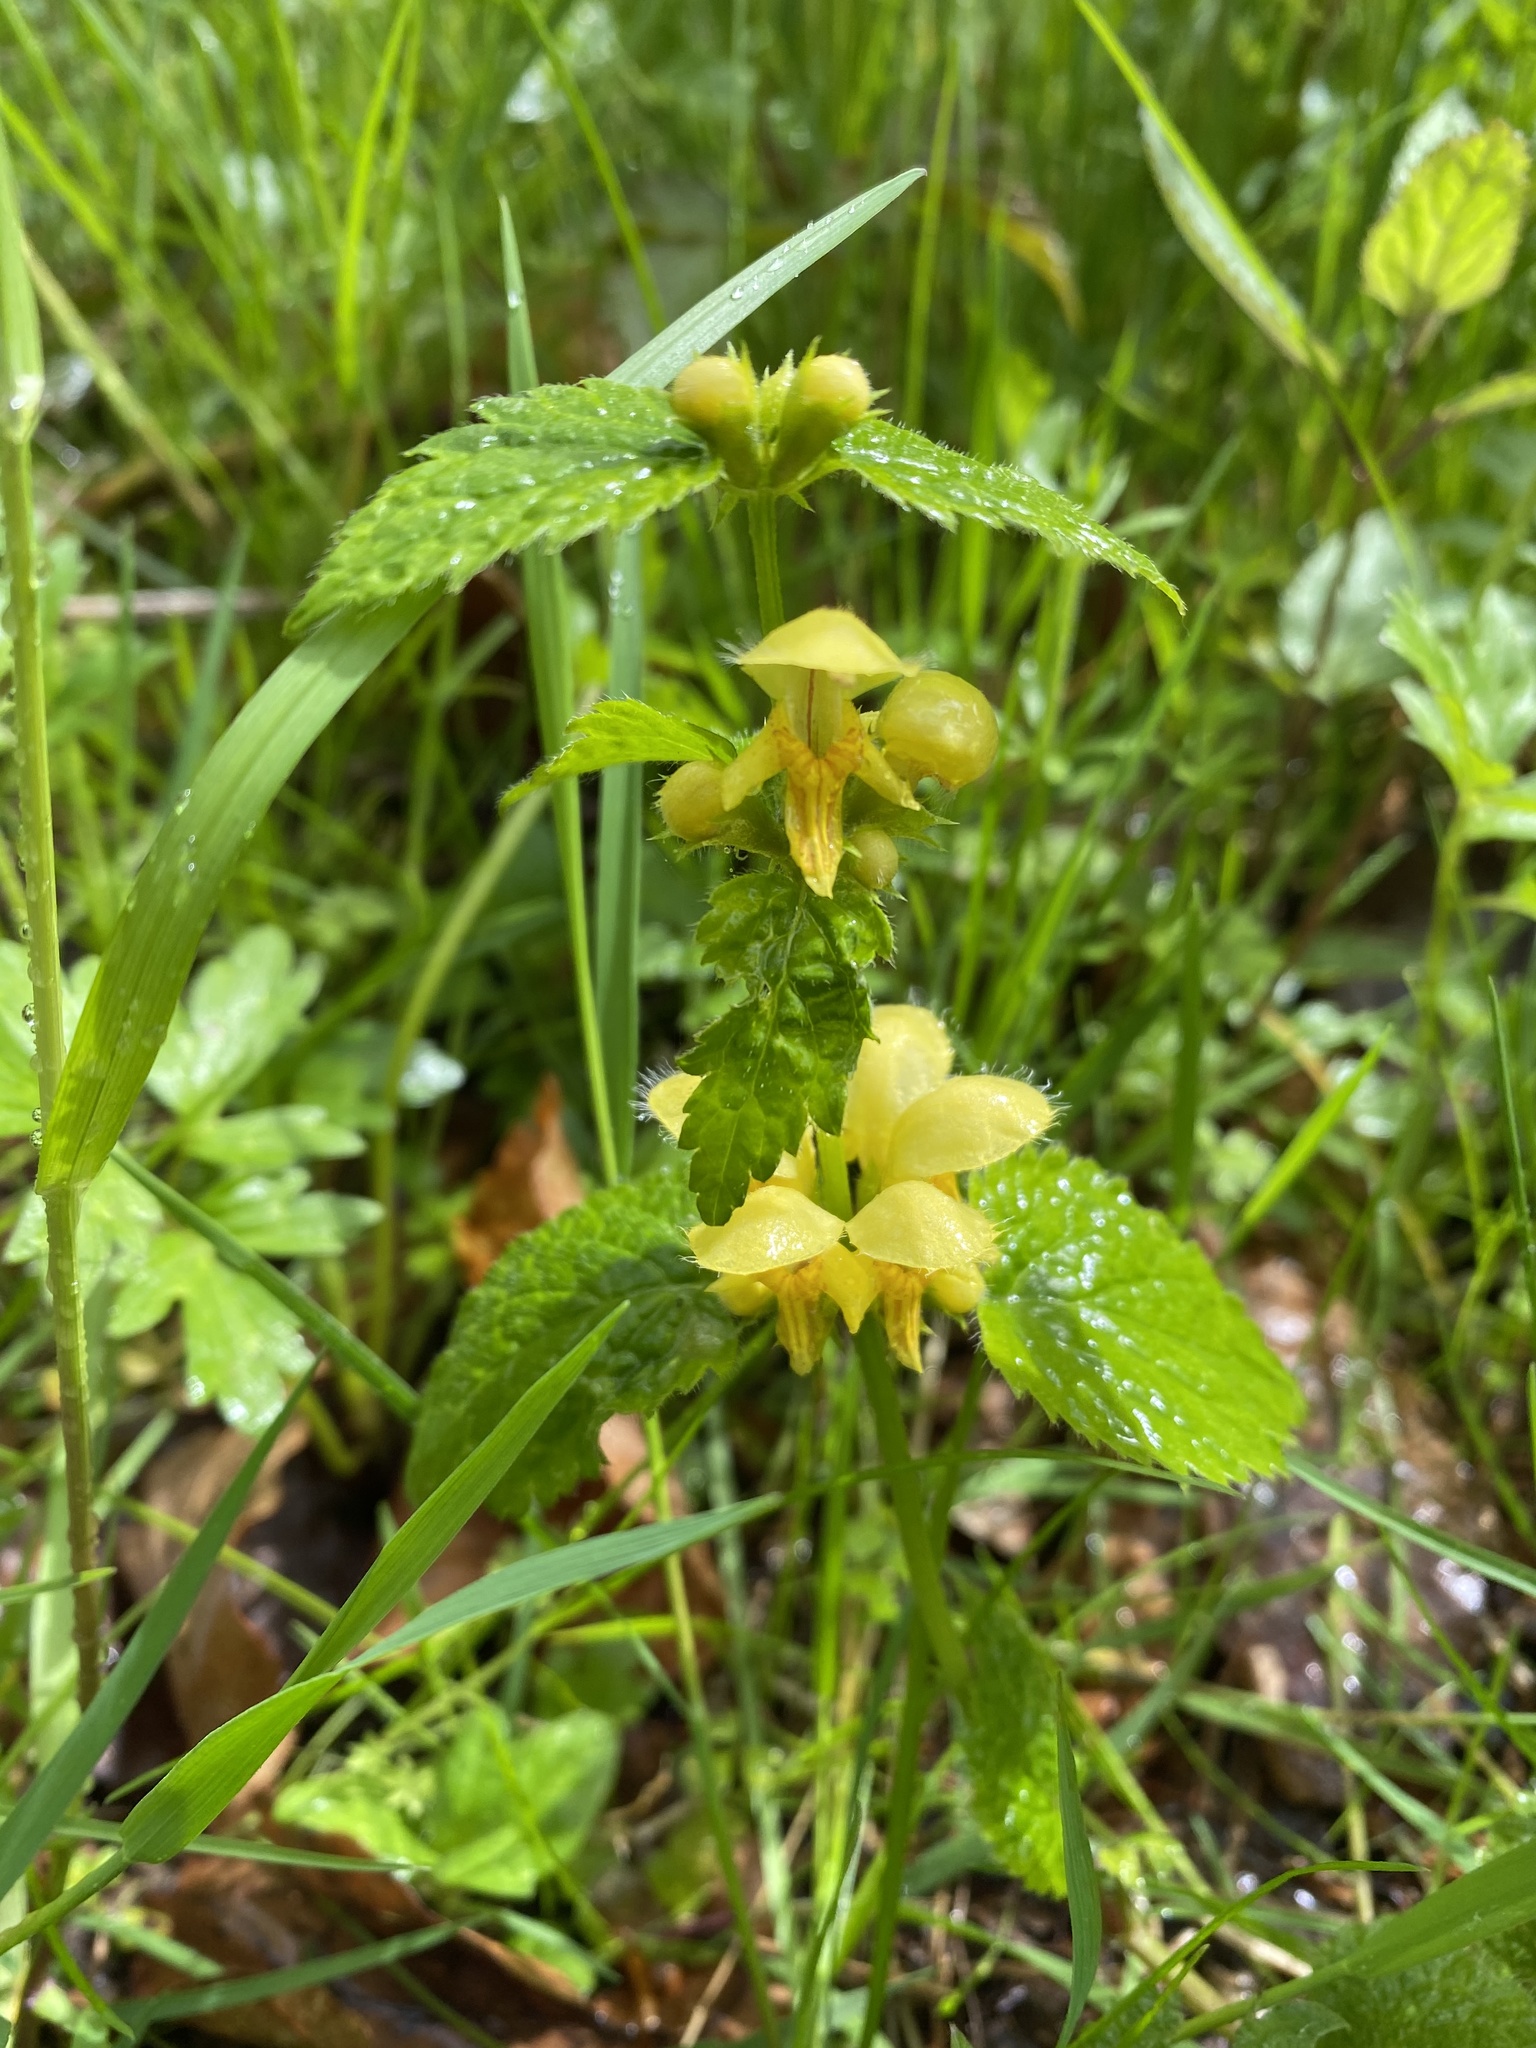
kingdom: Plantae
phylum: Tracheophyta
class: Magnoliopsida
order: Lamiales
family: Lamiaceae
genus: Lamium
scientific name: Lamium galeobdolon
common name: Yellow archangel
